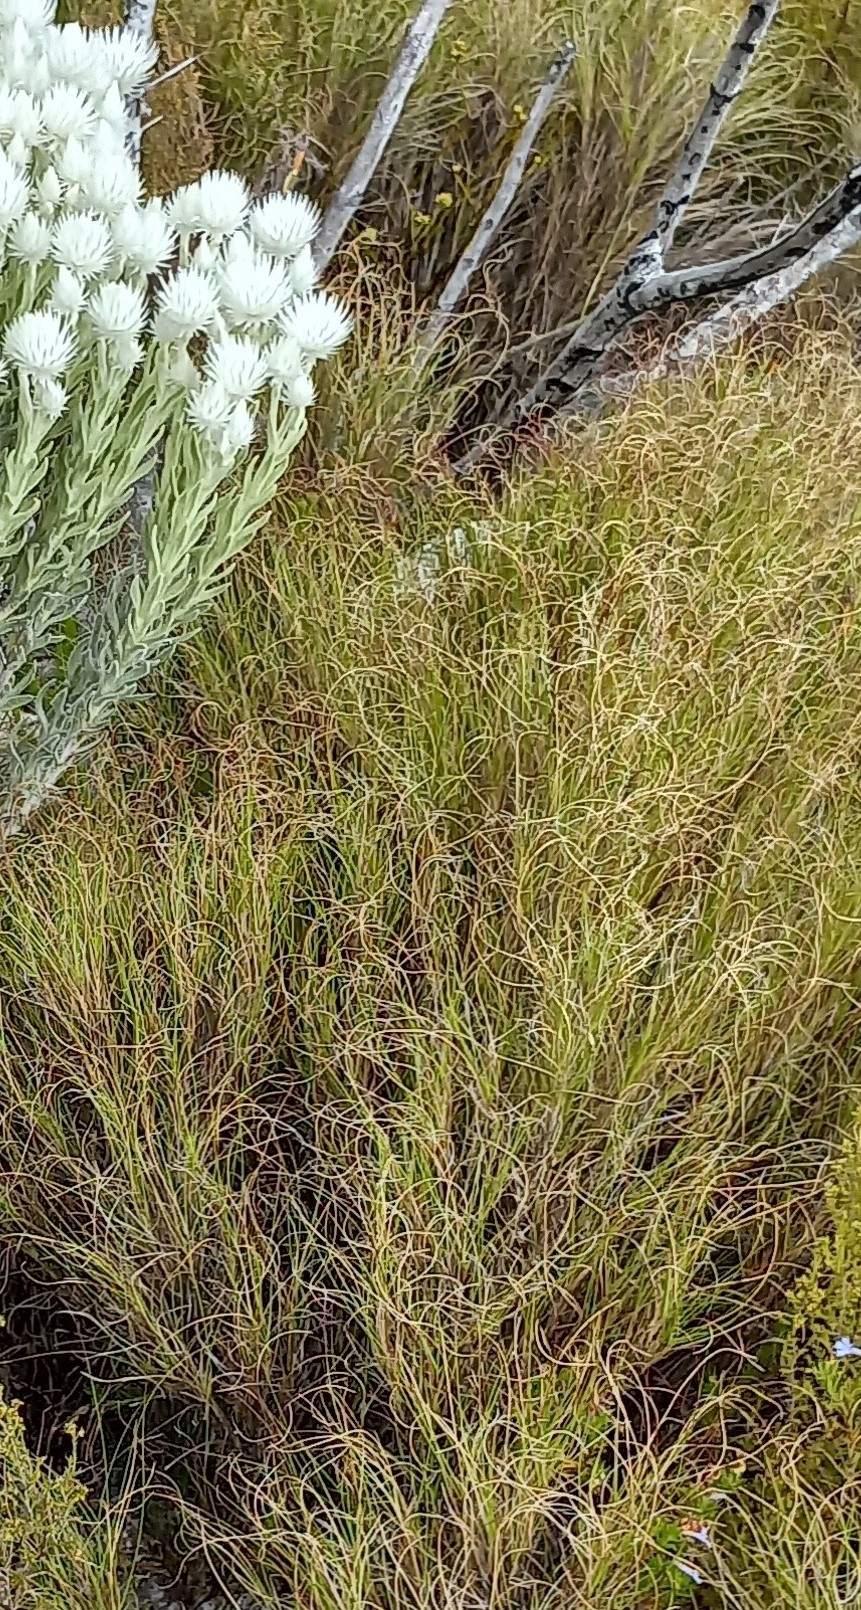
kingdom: Plantae
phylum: Tracheophyta
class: Liliopsida
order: Poales
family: Poaceae
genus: Pseudopentameris
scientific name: Pseudopentameris macrantha
